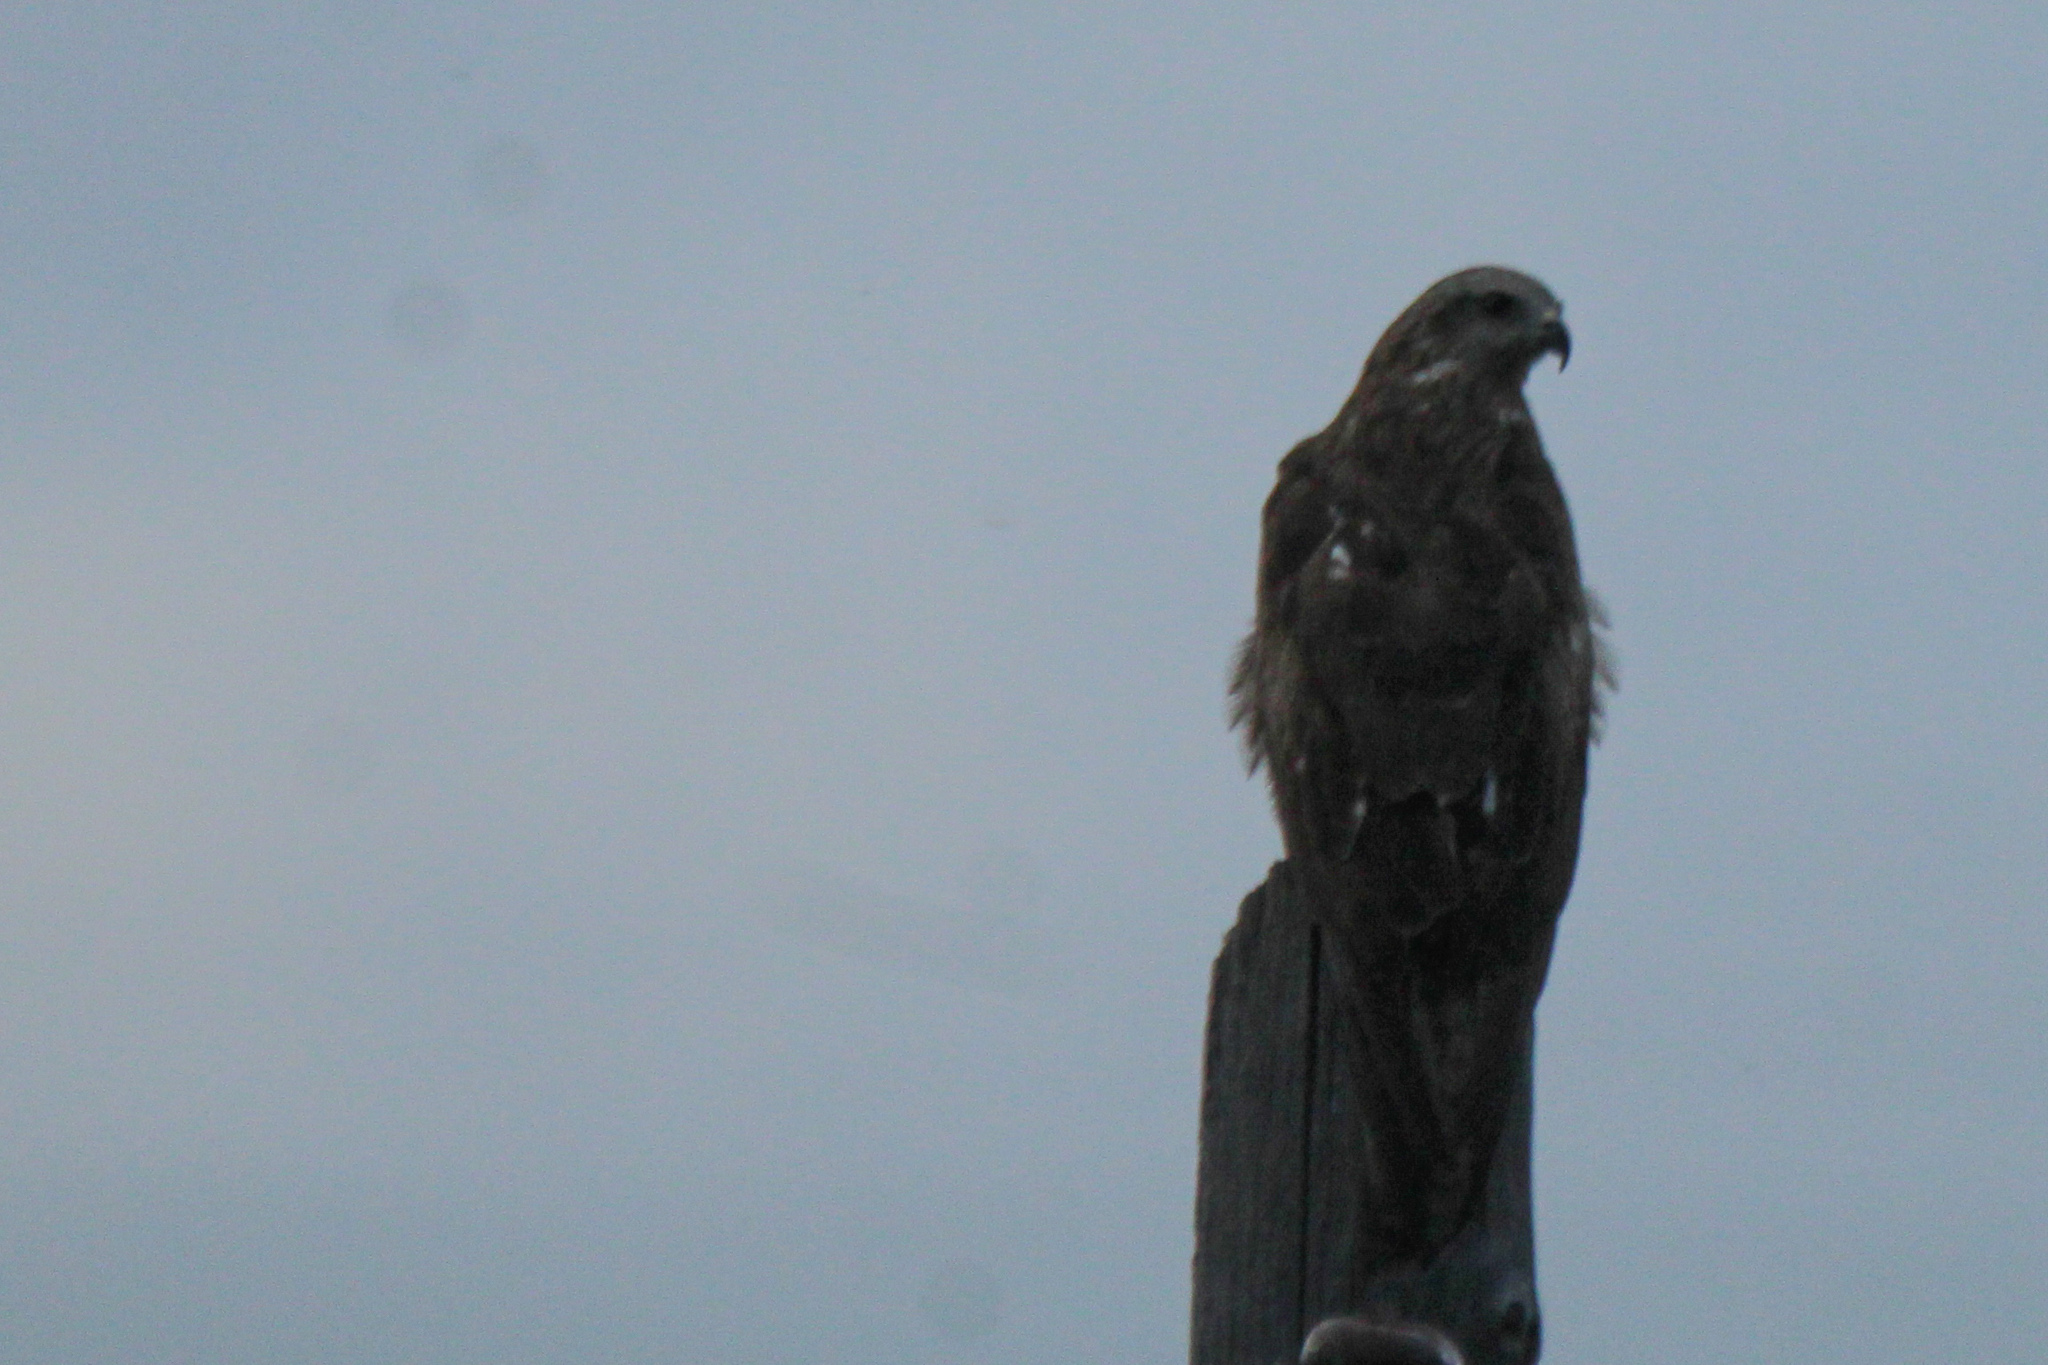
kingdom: Animalia
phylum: Chordata
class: Aves
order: Accipitriformes
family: Accipitridae
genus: Milvus
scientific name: Milvus migrans
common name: Black kite
